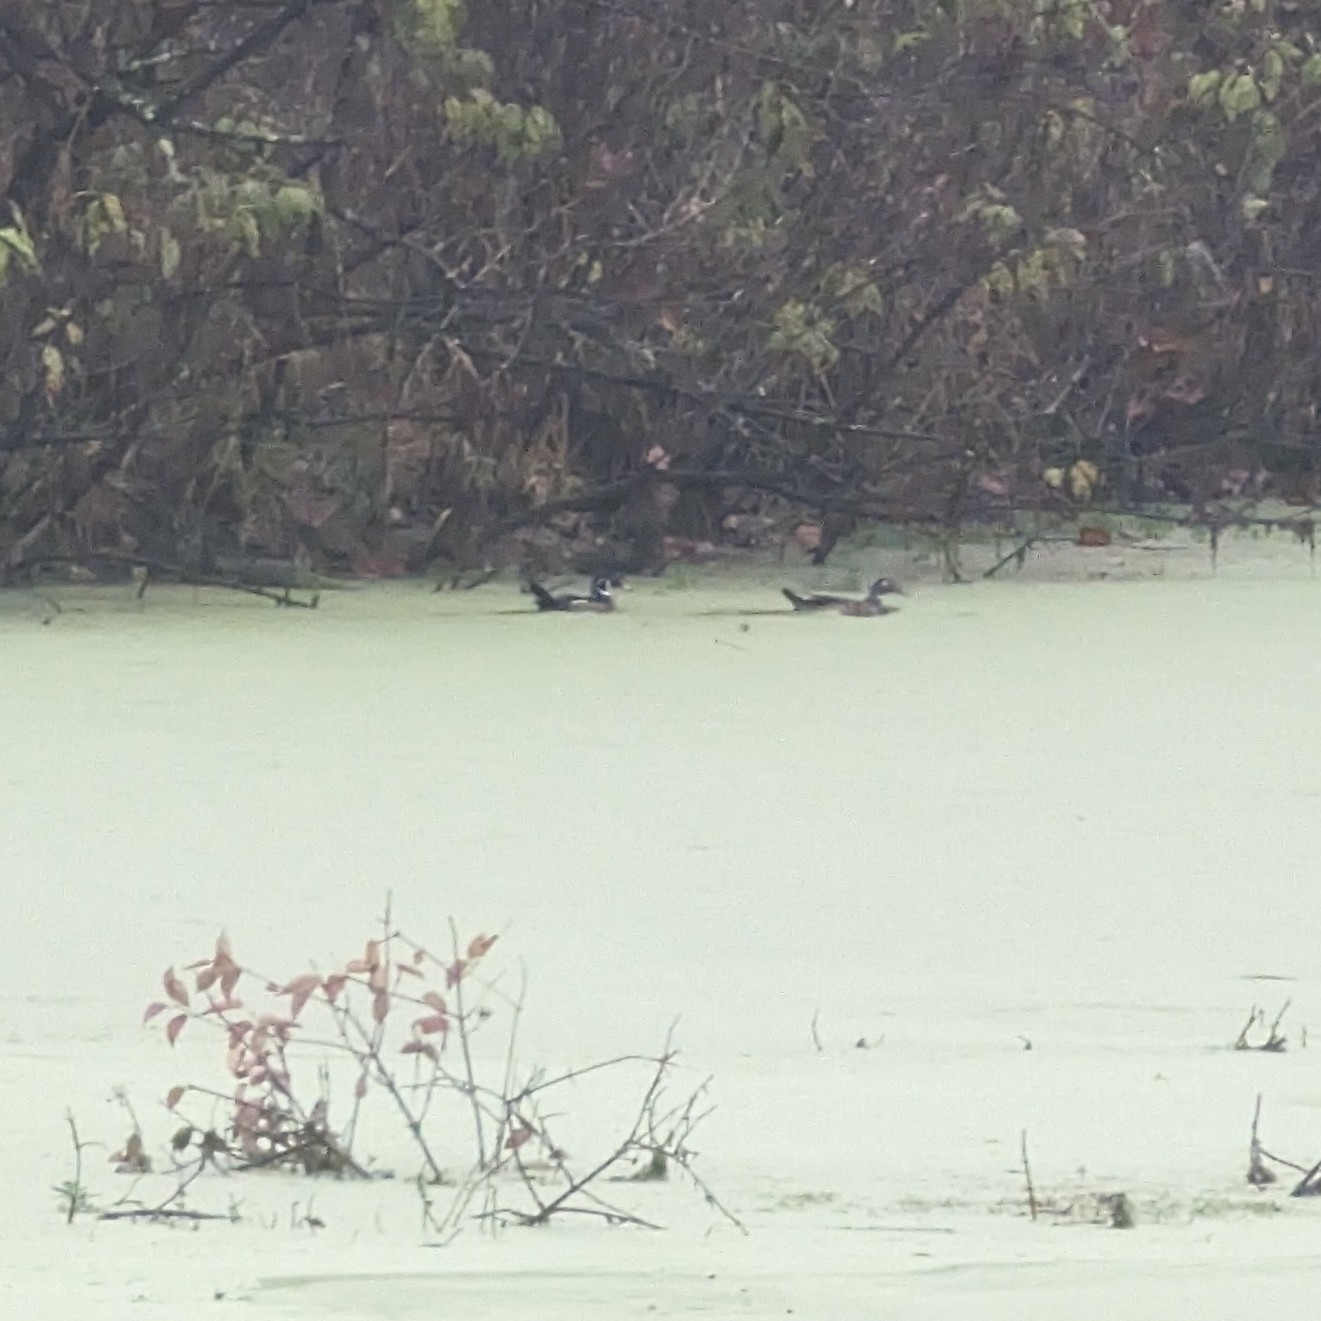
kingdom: Animalia
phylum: Chordata
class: Aves
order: Anseriformes
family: Anatidae
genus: Aix
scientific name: Aix sponsa
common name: Wood duck
